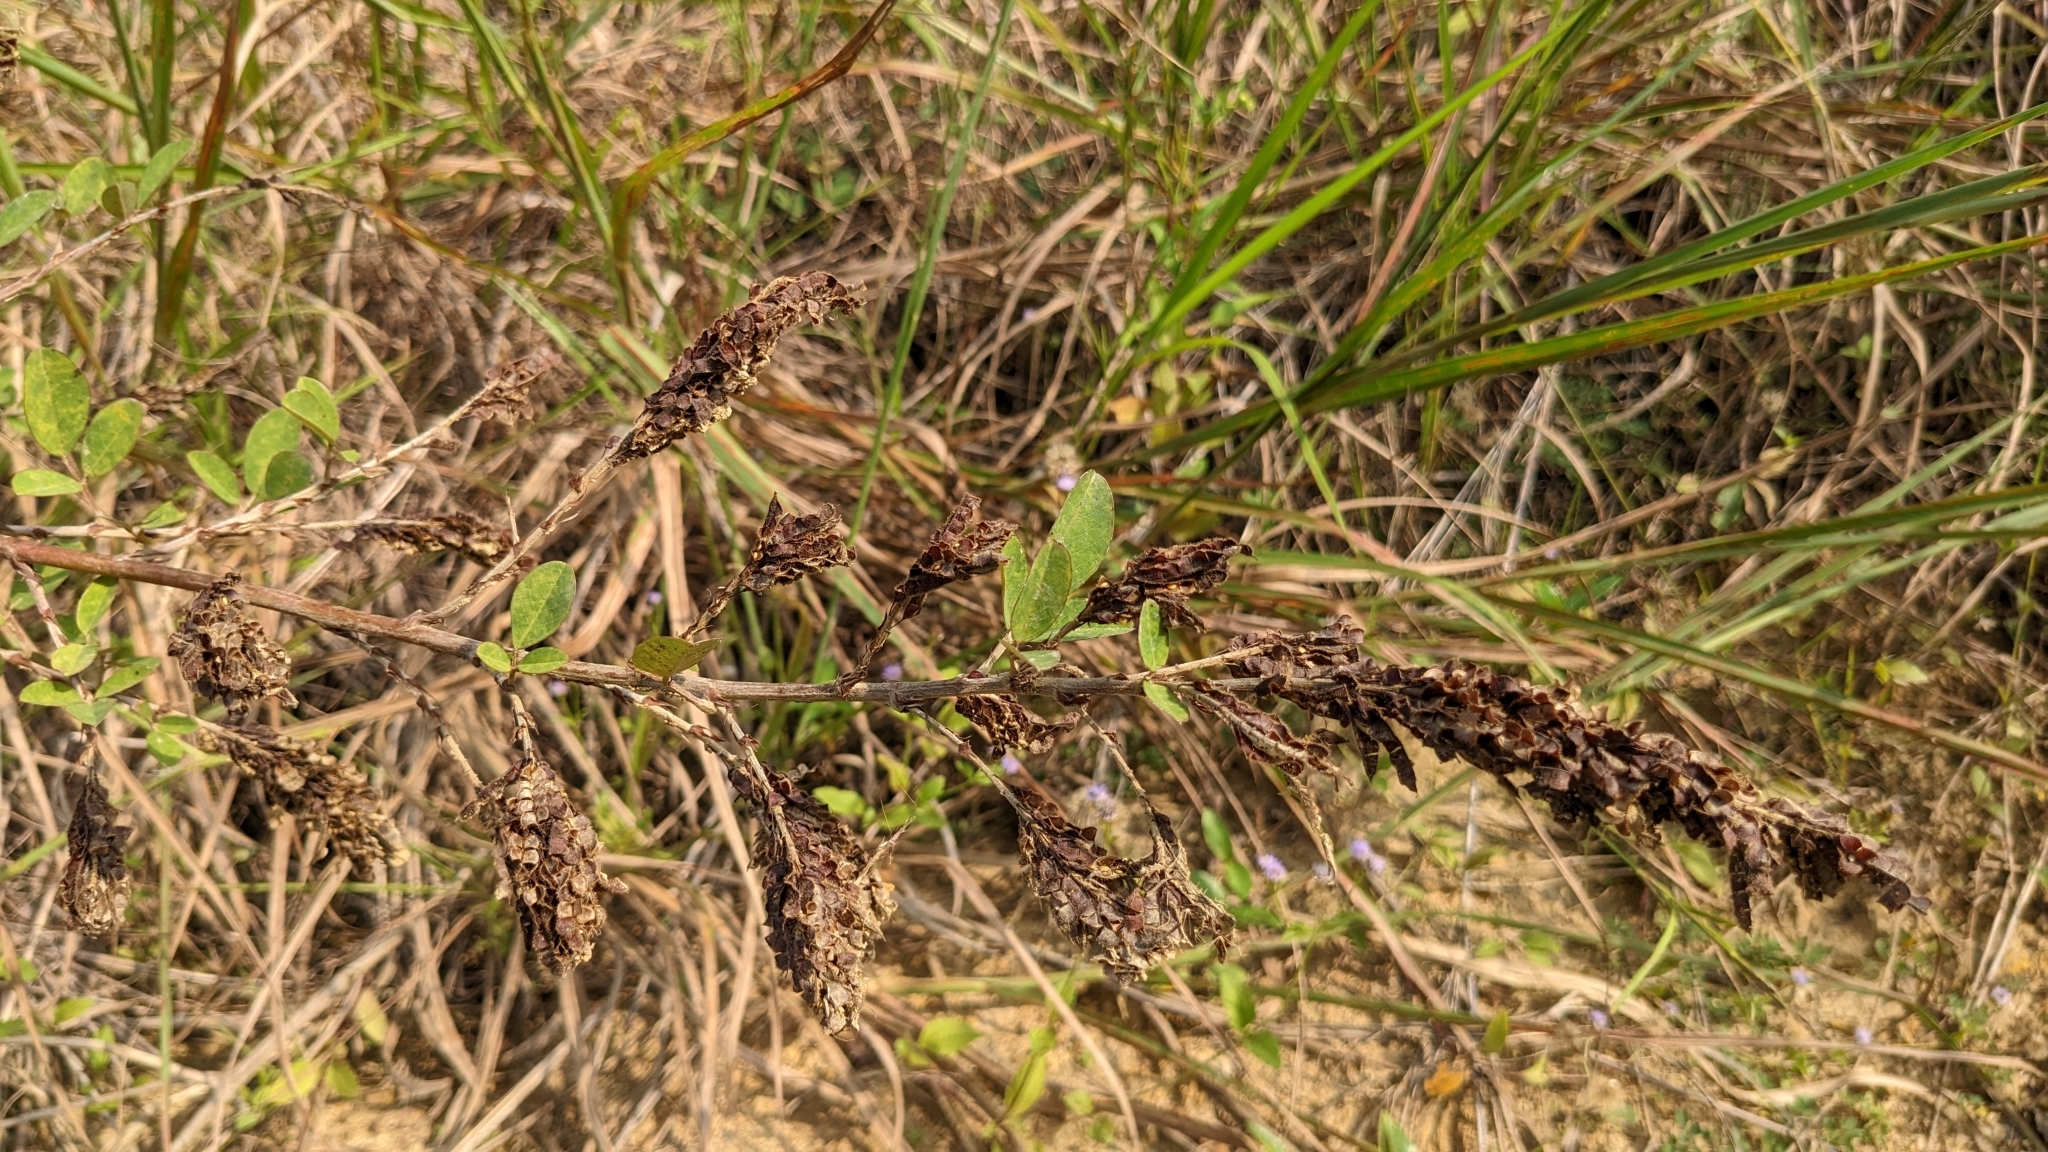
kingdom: Plantae
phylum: Tracheophyta
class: Magnoliopsida
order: Fabales
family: Fabaceae
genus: Grona
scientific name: Grona heterocarpos
